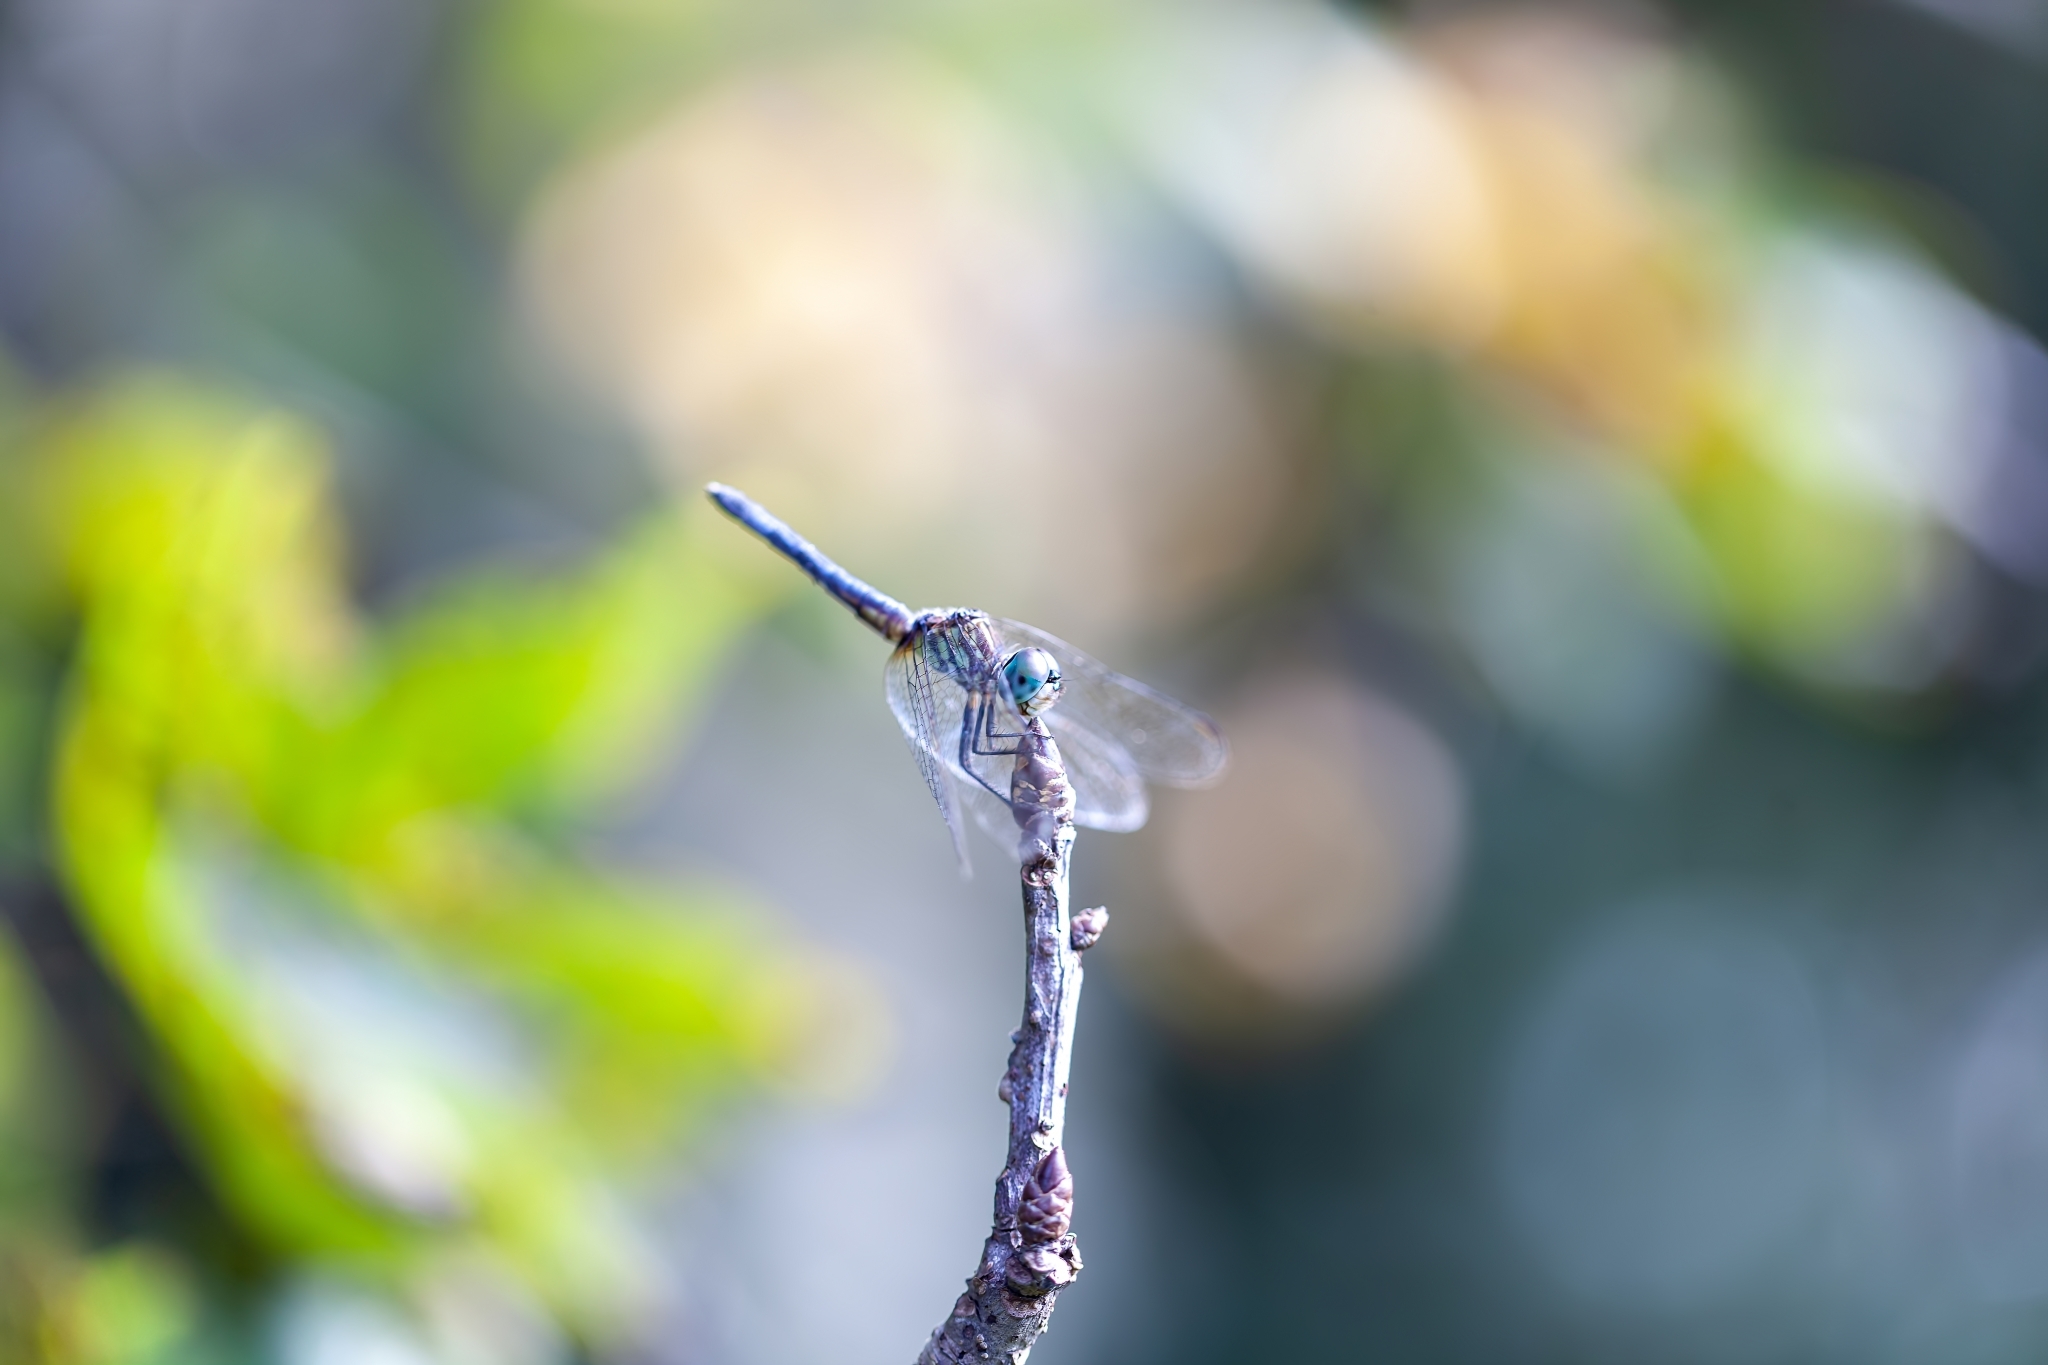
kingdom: Animalia
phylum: Arthropoda
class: Insecta
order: Odonata
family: Libellulidae
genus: Pachydiplax
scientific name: Pachydiplax longipennis
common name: Blue dasher
